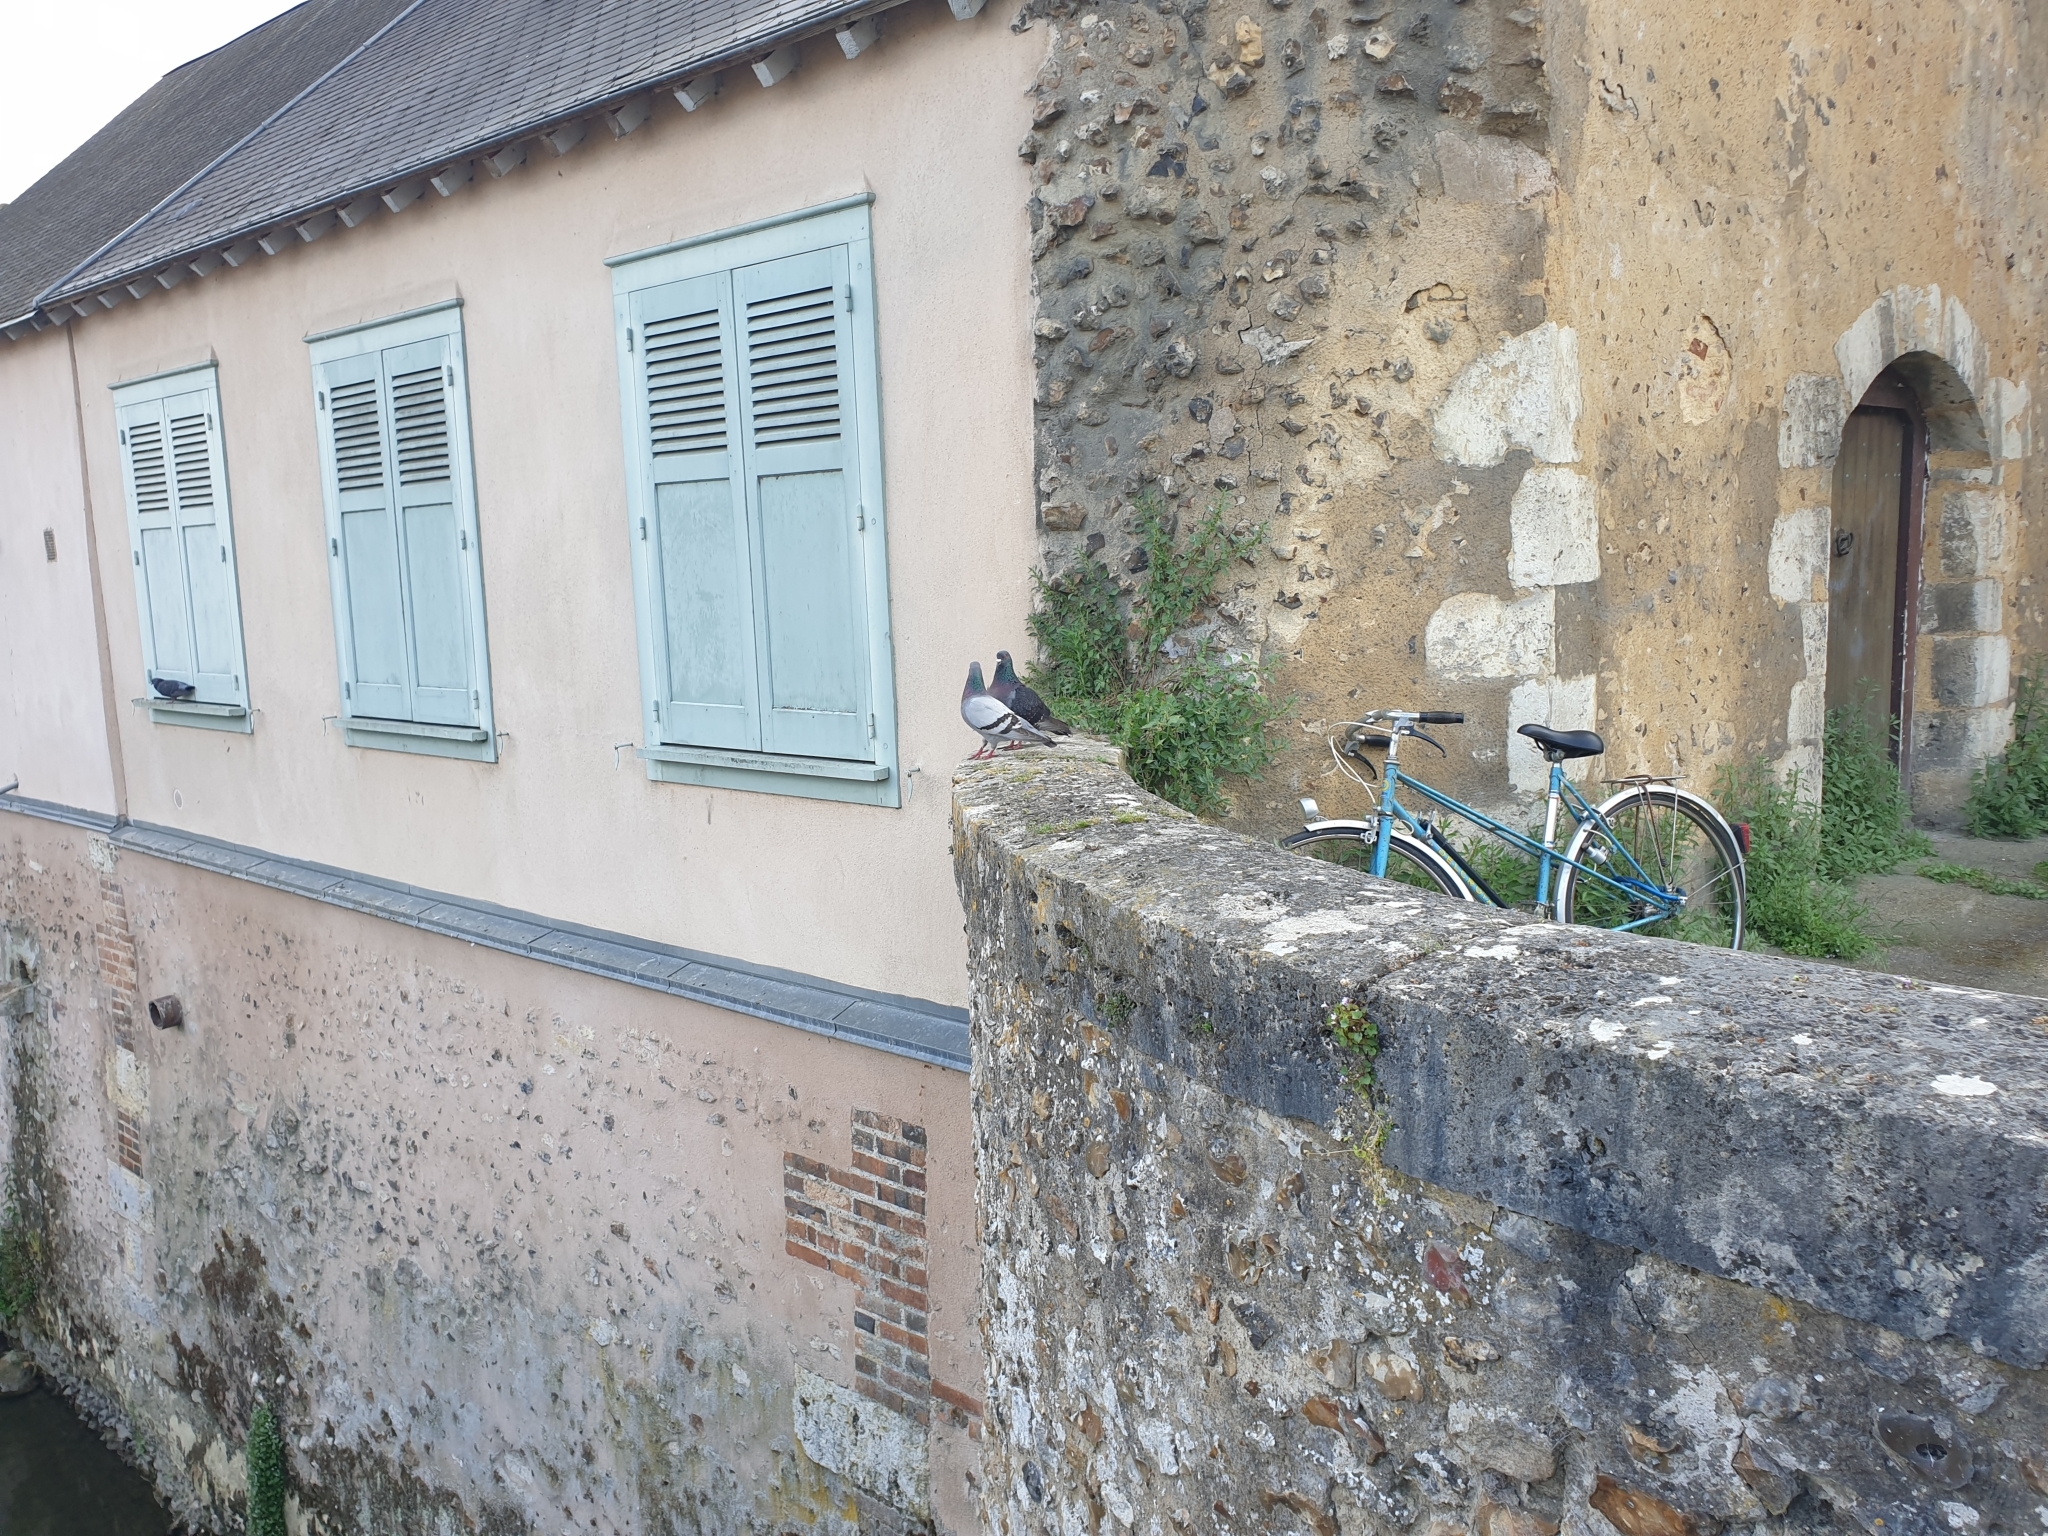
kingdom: Animalia
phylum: Chordata
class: Aves
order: Columbiformes
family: Columbidae
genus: Columba
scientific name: Columba livia
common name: Rock pigeon
